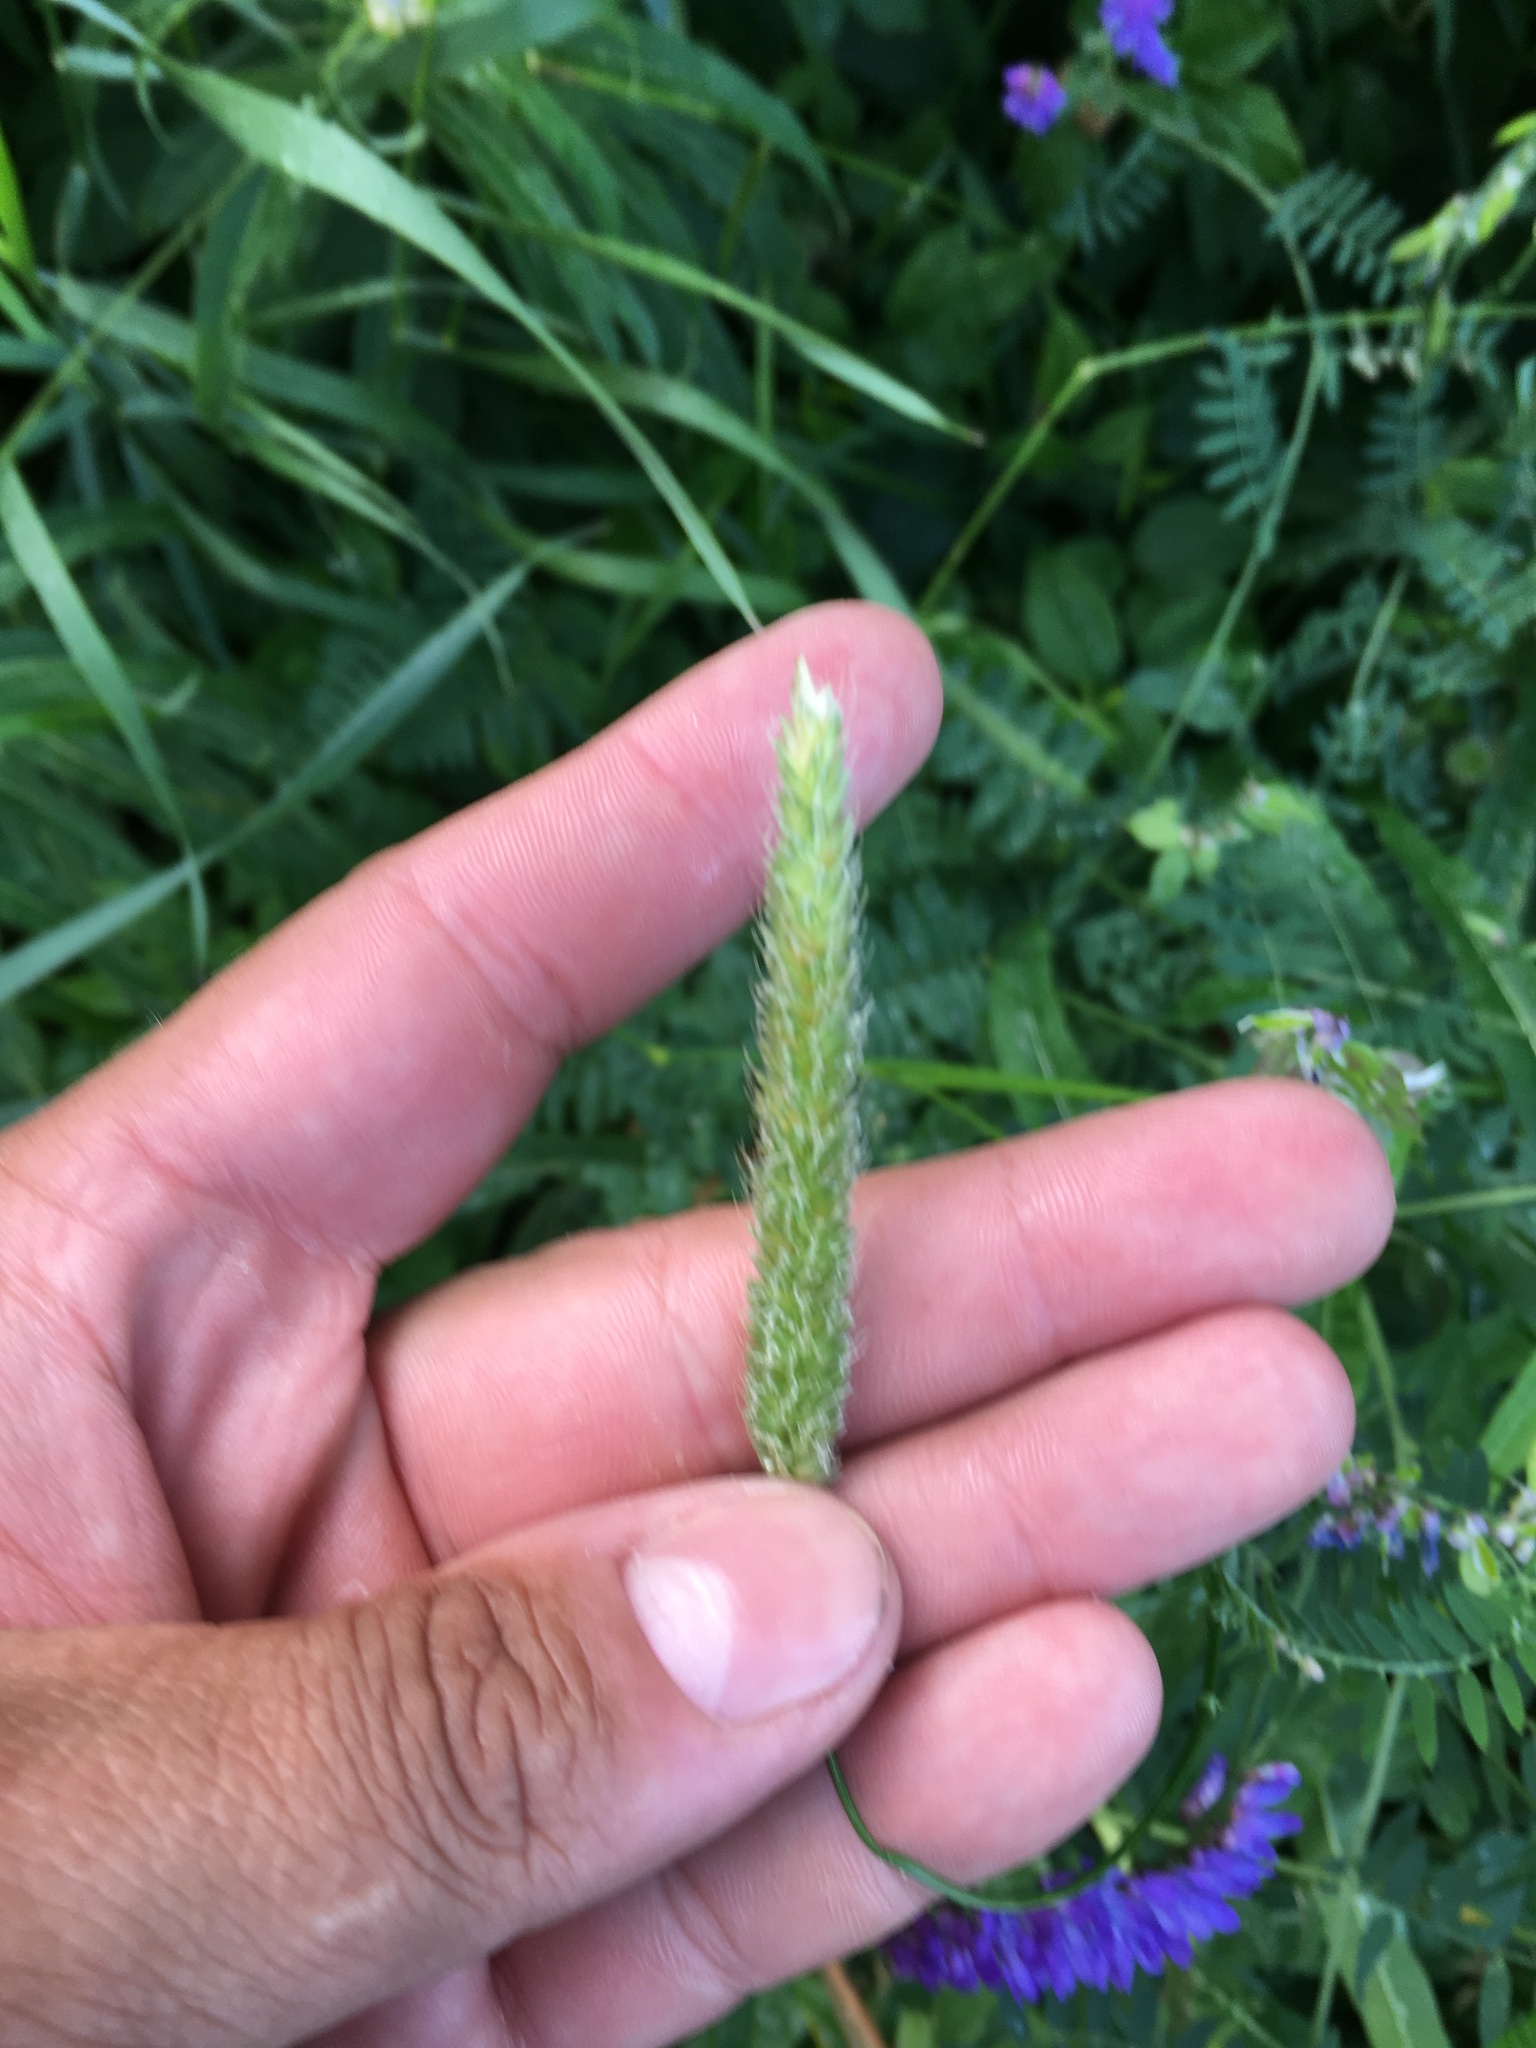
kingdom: Plantae
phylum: Tracheophyta
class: Liliopsida
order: Poales
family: Poaceae
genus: Alopecurus
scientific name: Alopecurus pratensis
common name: Meadow foxtail
